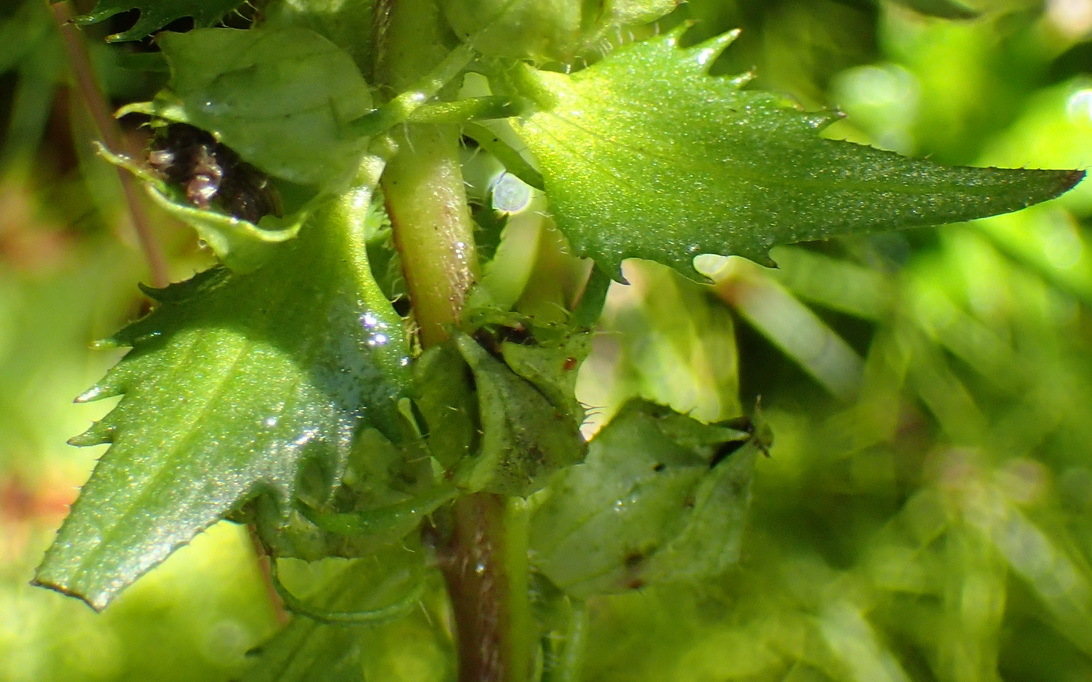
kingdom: Plantae
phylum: Tracheophyta
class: Magnoliopsida
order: Lamiales
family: Orobanchaceae
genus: Alectra
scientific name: Alectra sessiliflora
